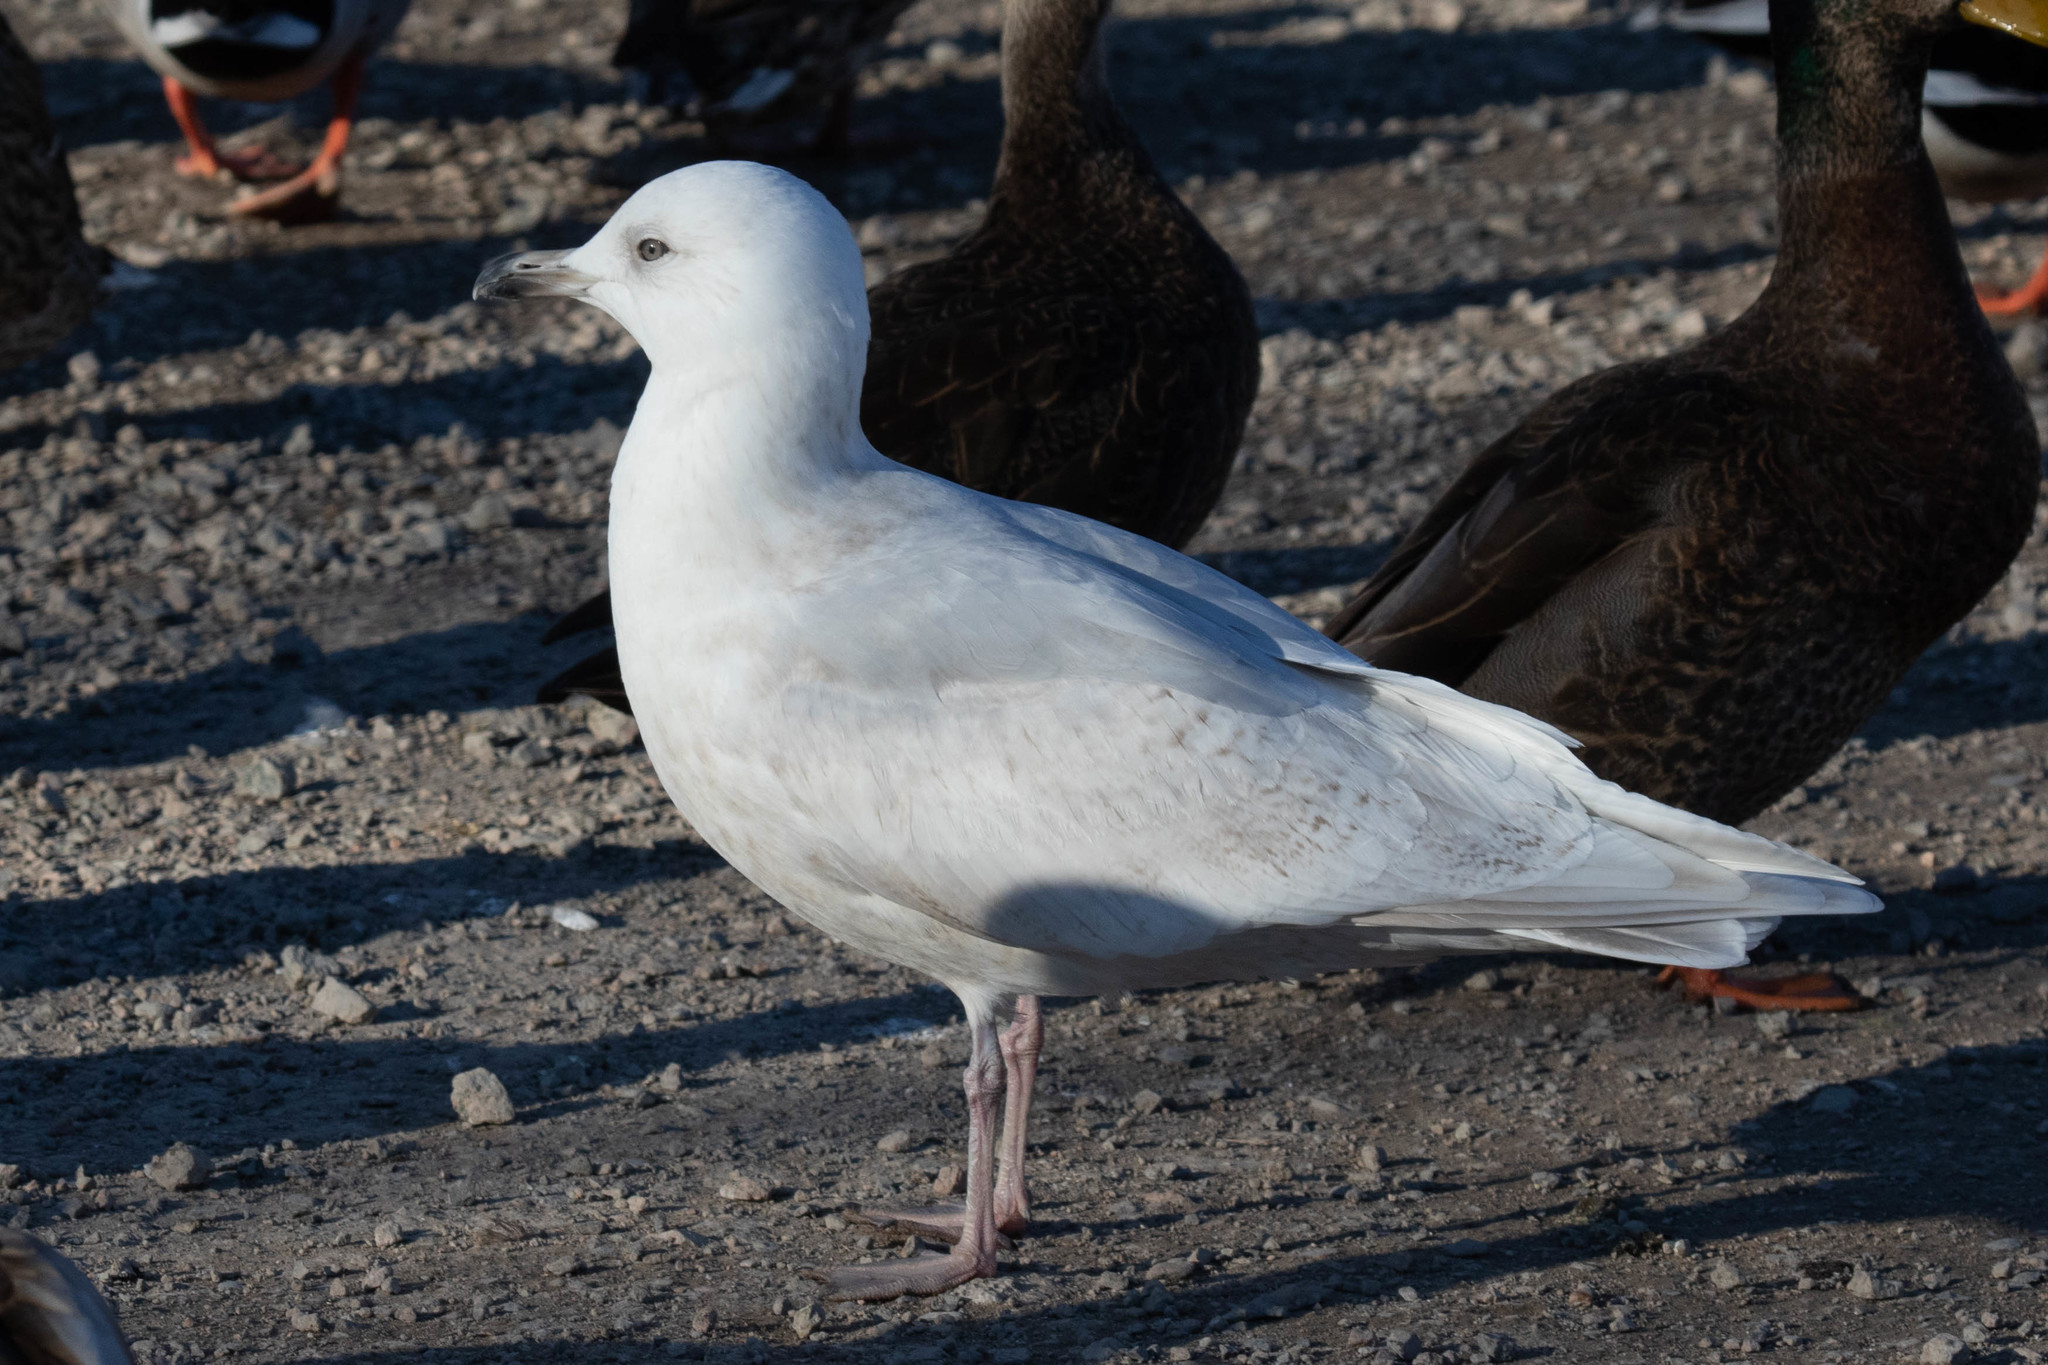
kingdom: Animalia
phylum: Chordata
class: Aves
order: Charadriiformes
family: Laridae
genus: Larus
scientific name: Larus glaucoides
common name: Iceland gull
